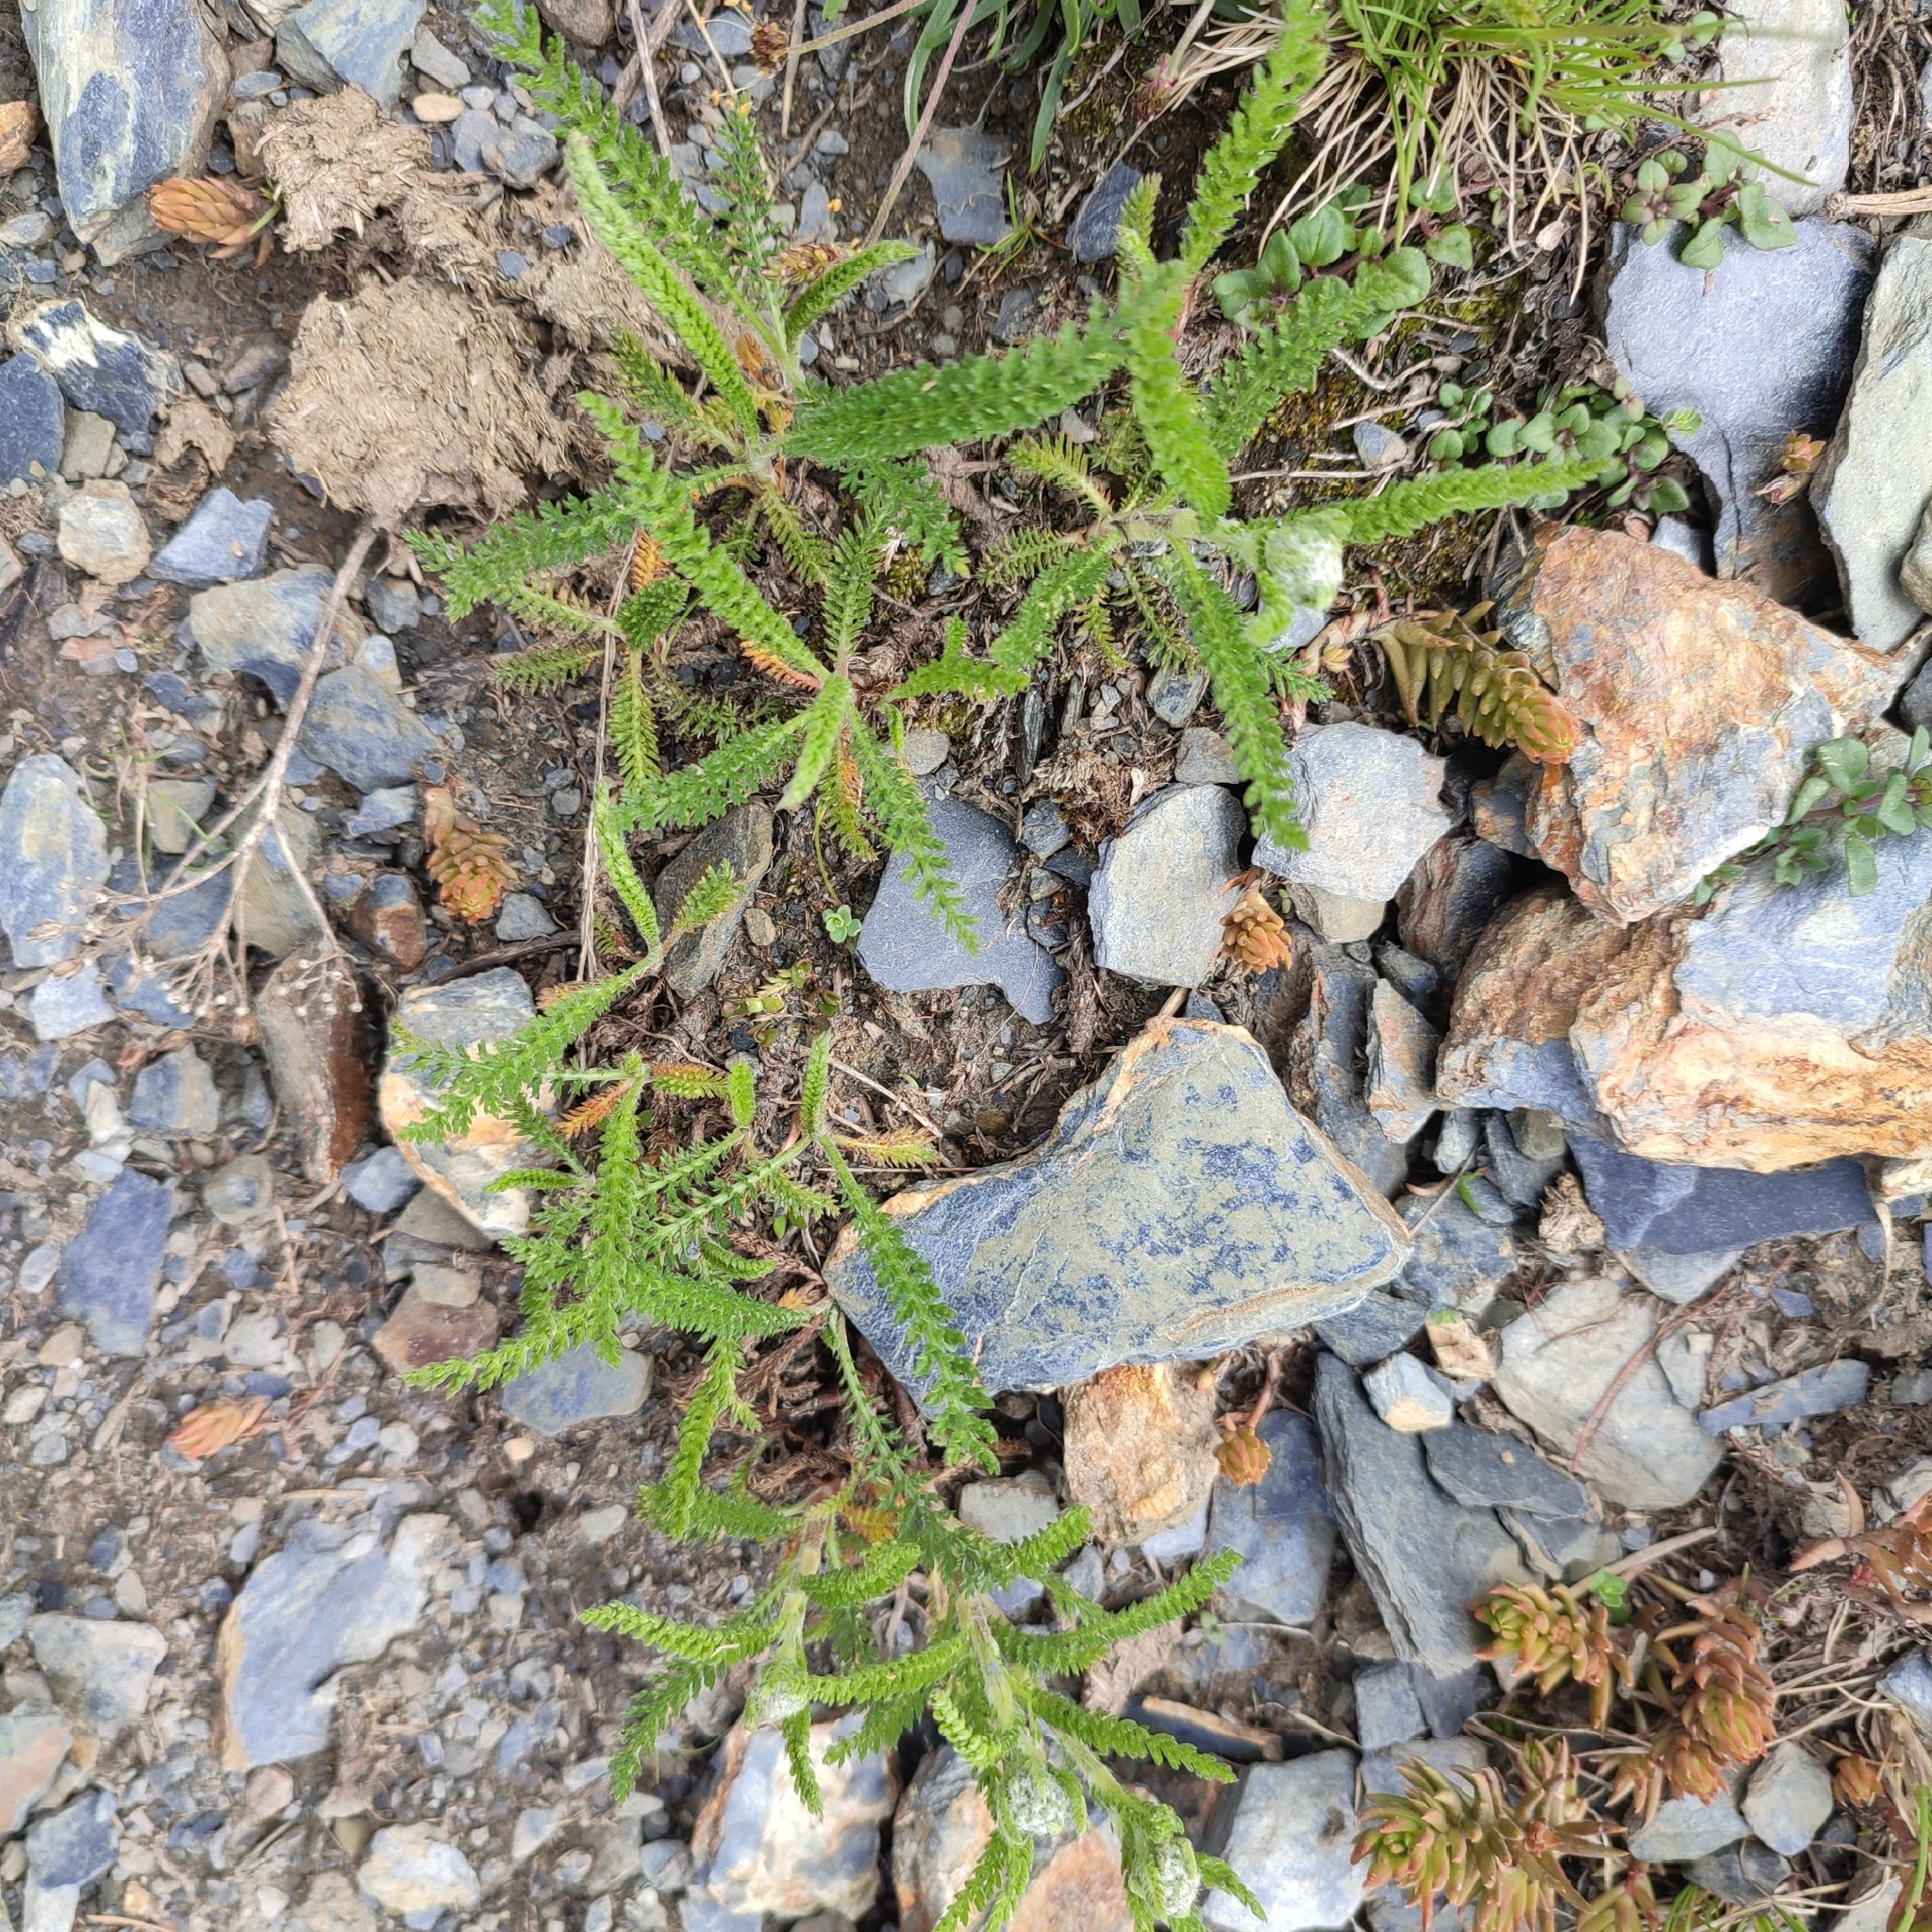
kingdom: Plantae
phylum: Tracheophyta
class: Magnoliopsida
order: Asterales
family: Asteraceae
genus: Achillea
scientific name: Achillea millefolium
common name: Yarrow
